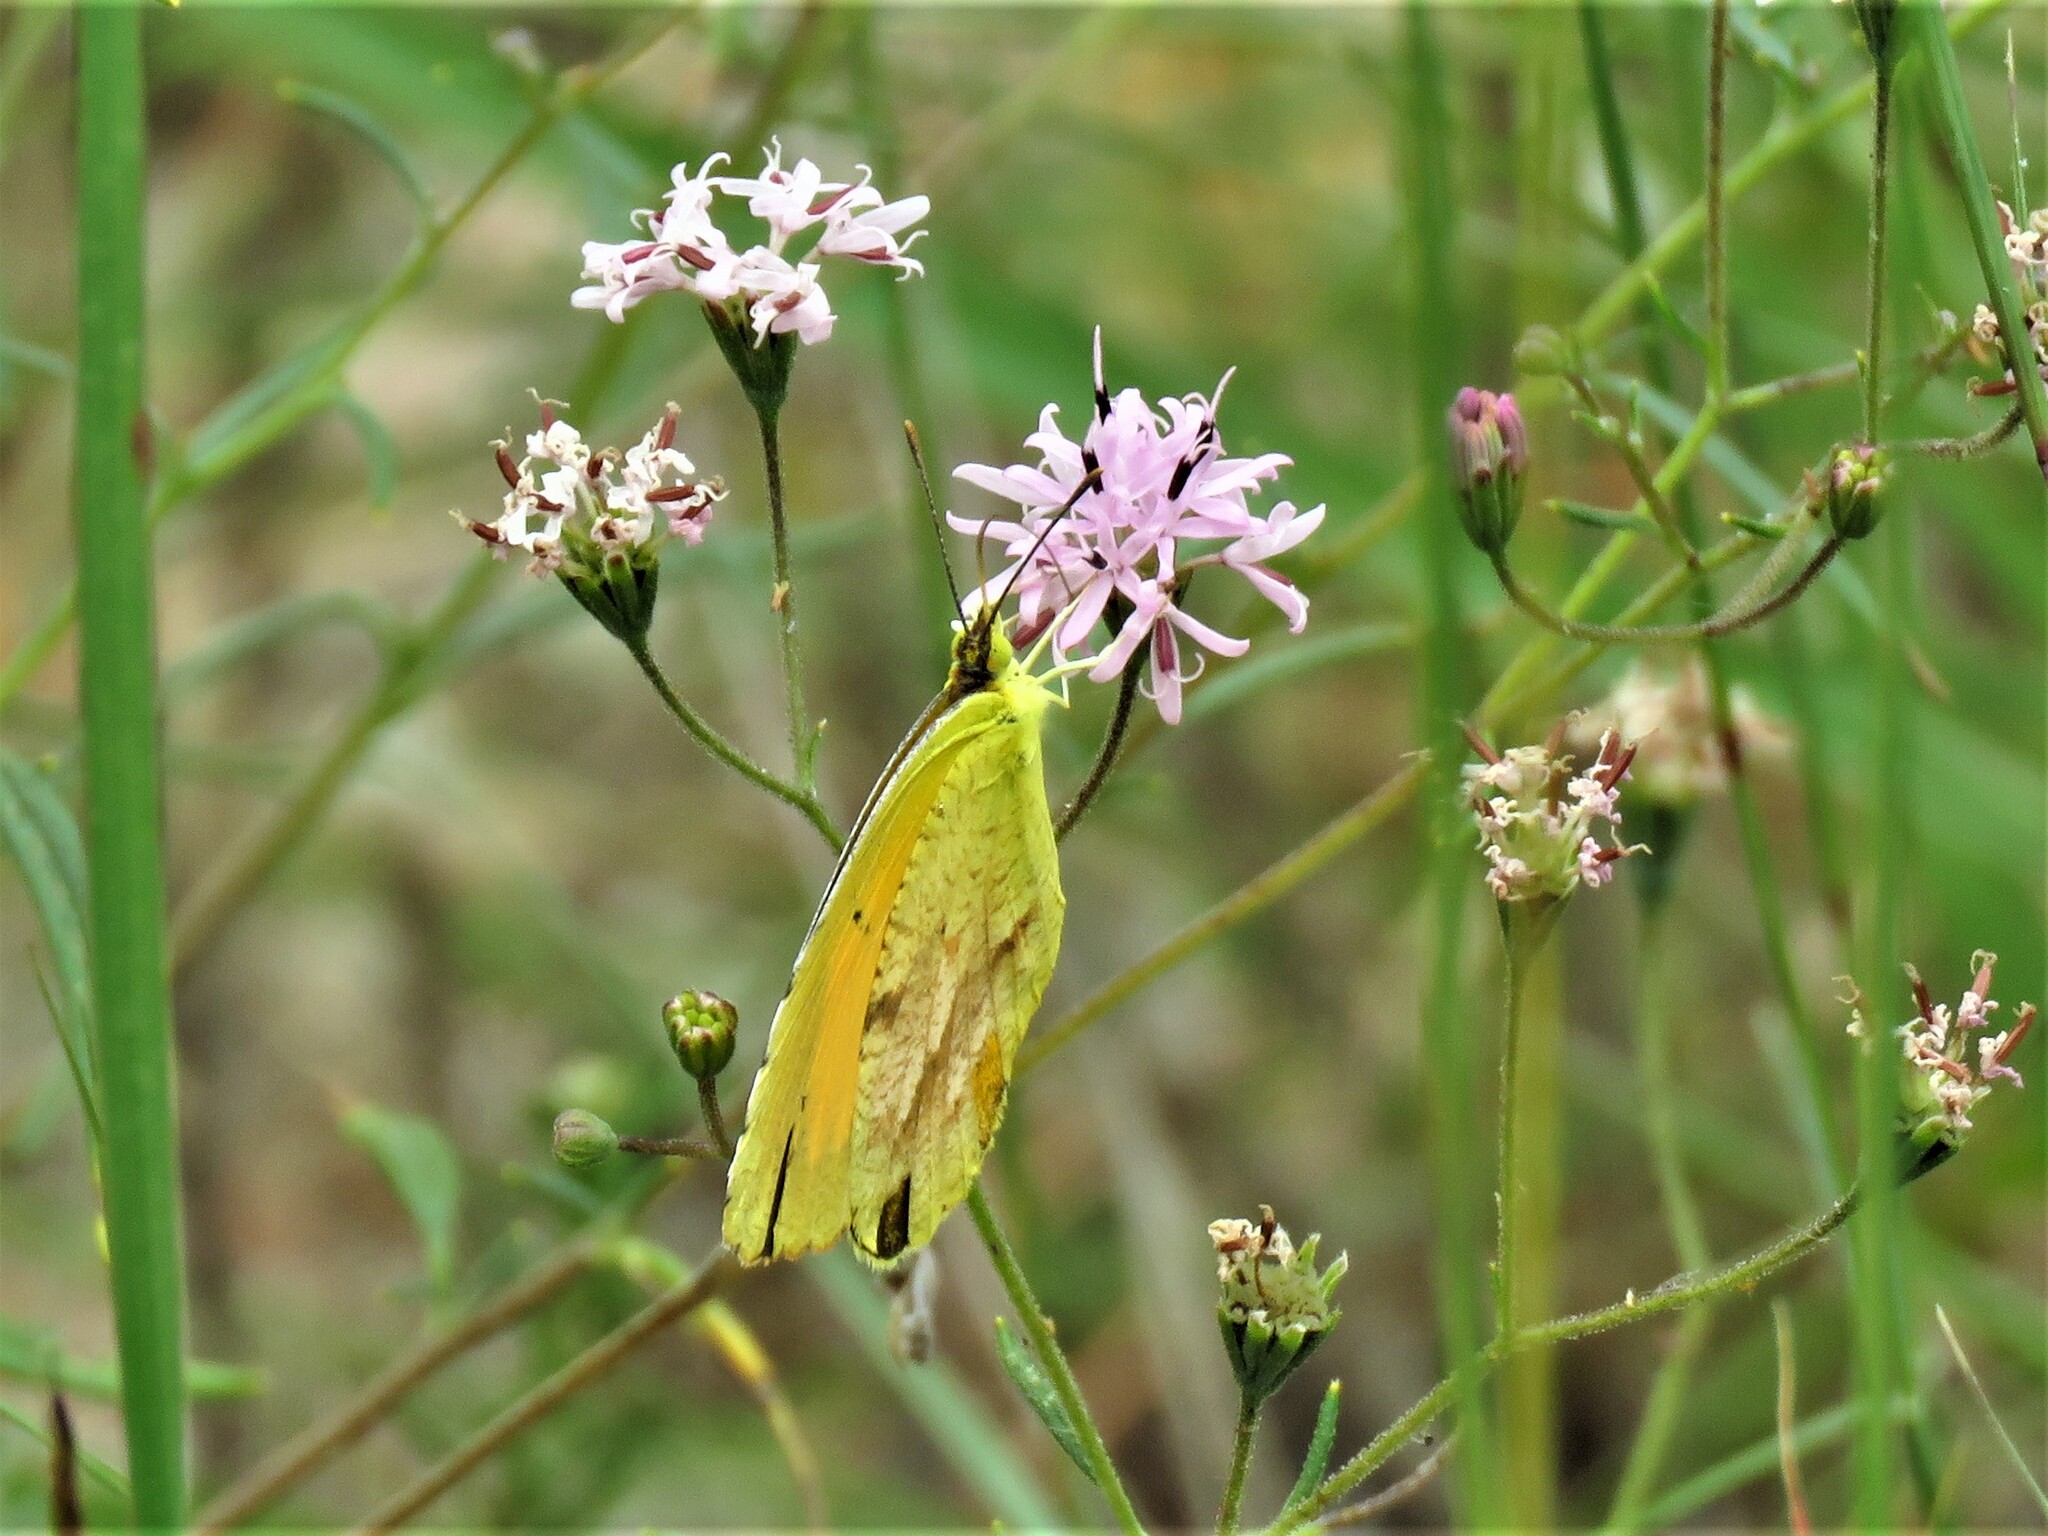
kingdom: Animalia
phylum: Arthropoda
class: Insecta
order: Lepidoptera
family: Pieridae
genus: Abaeis
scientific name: Abaeis nicippe
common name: Sleepy orange
